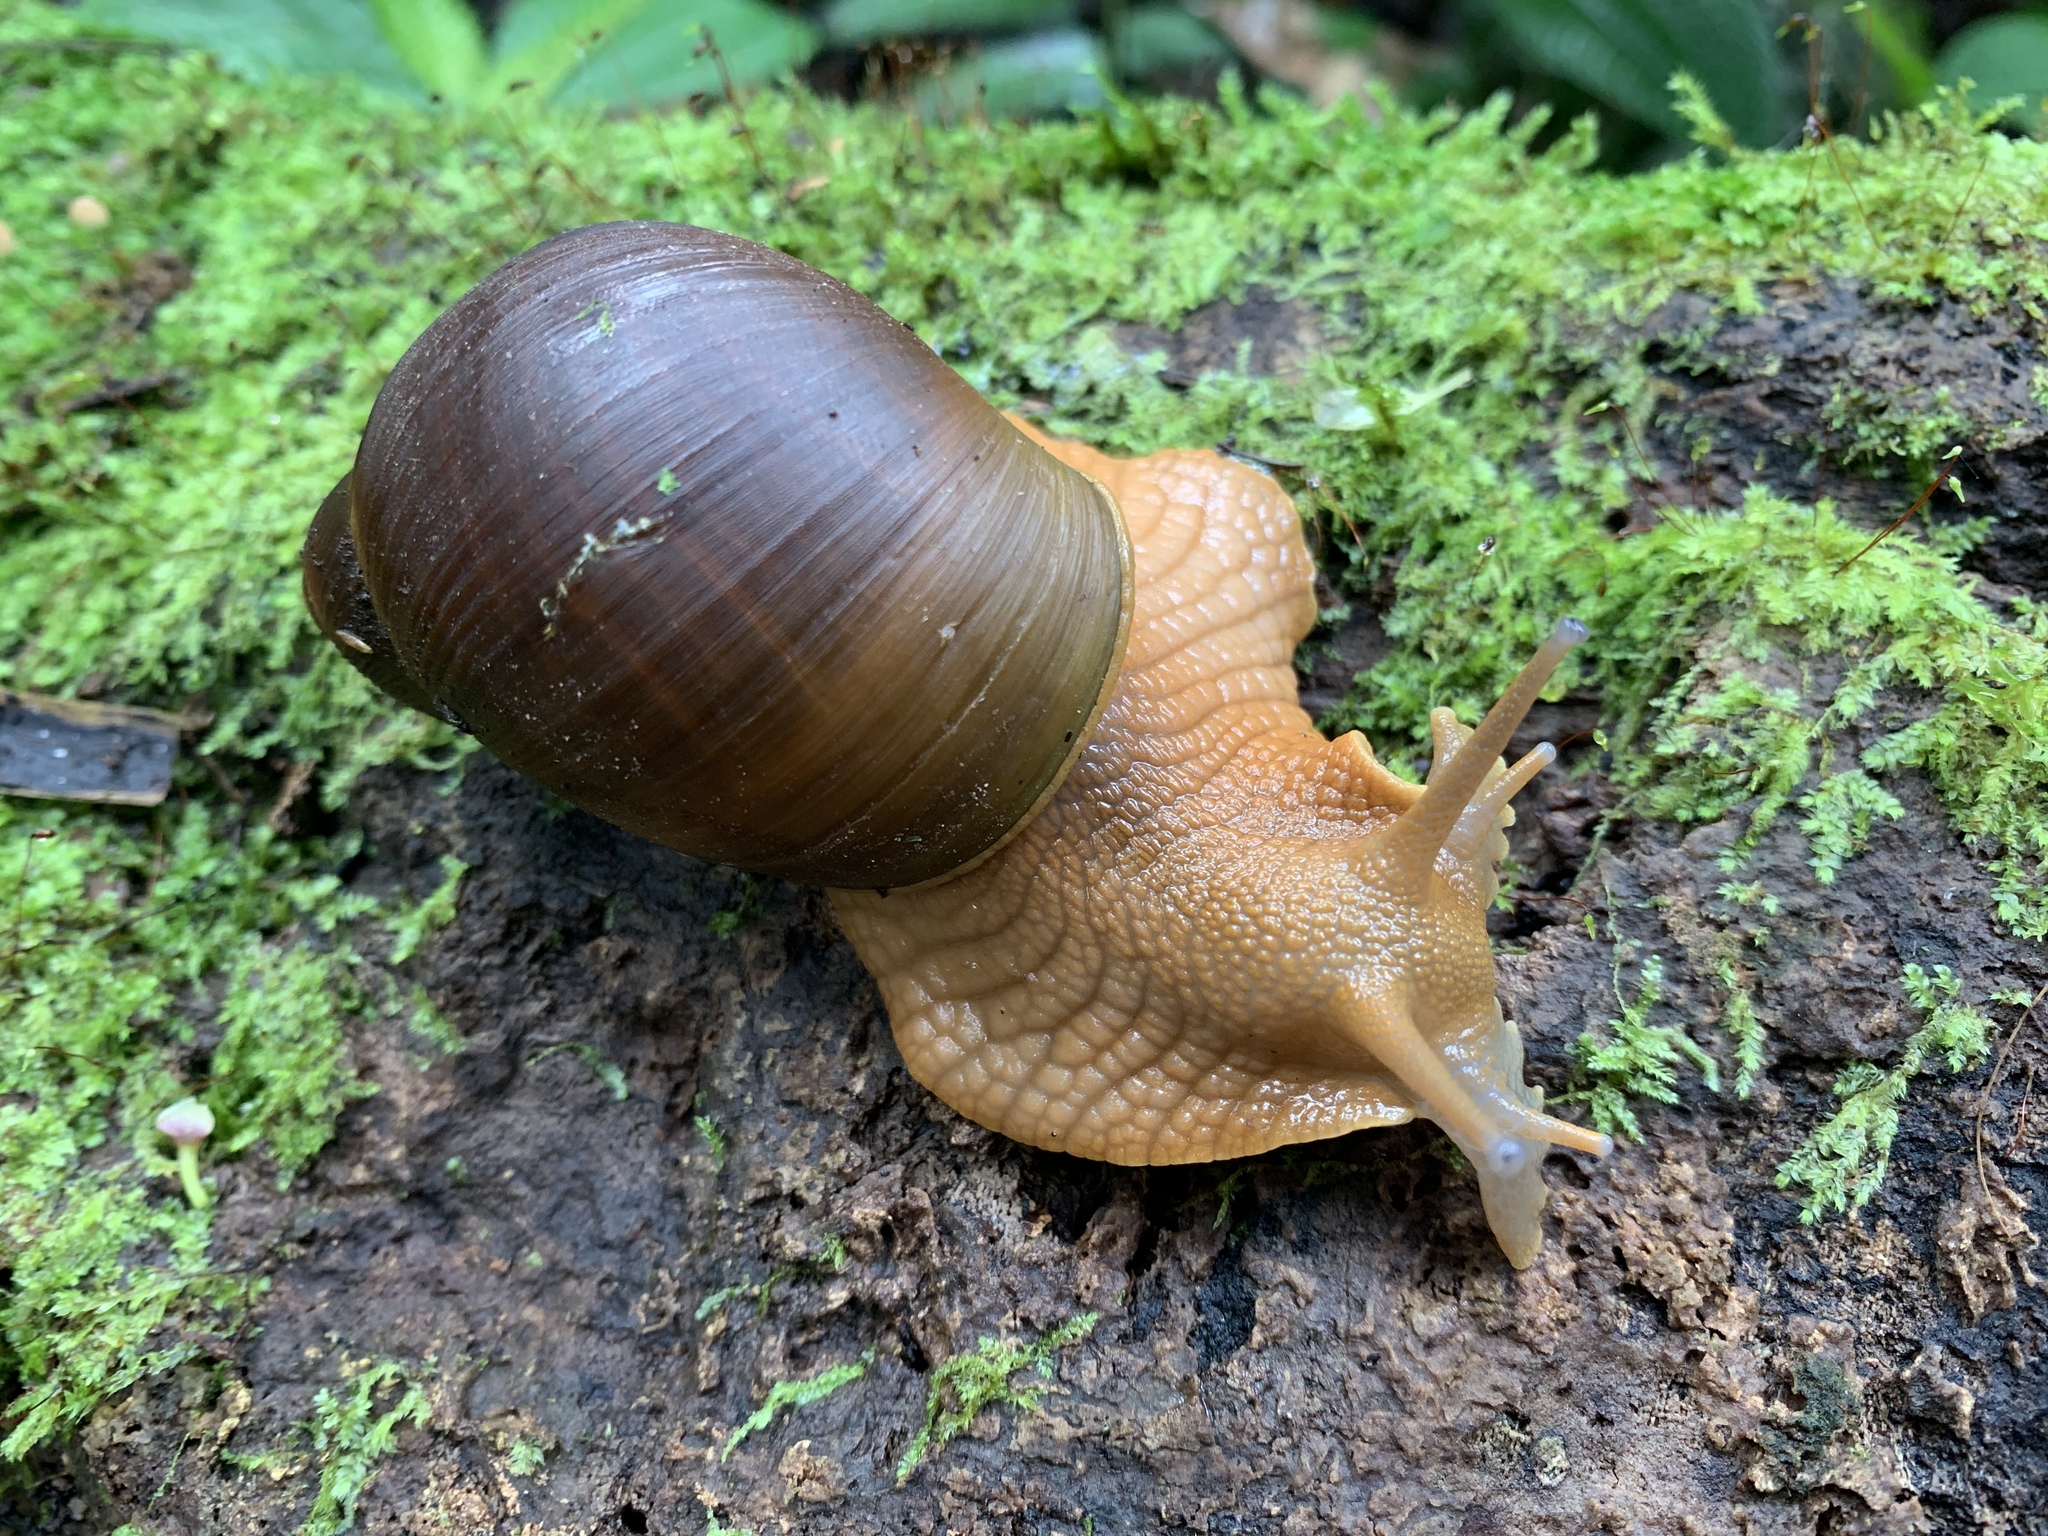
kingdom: Animalia
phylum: Mollusca
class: Gastropoda
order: Stylommatophora
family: Strophocheilidae
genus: Megalobulimus
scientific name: Megalobulimus popelairianus
